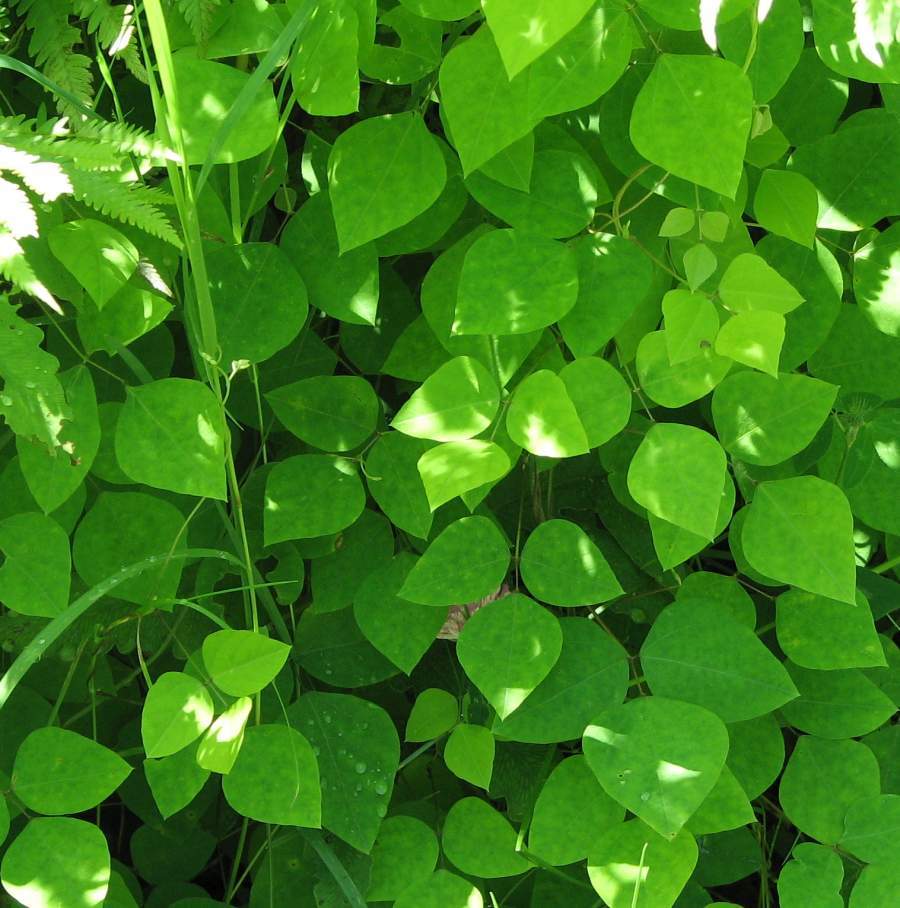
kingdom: Plantae
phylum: Tracheophyta
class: Magnoliopsida
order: Fabales
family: Fabaceae
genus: Amphicarpaea
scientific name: Amphicarpaea bracteata
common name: American hog peanut
